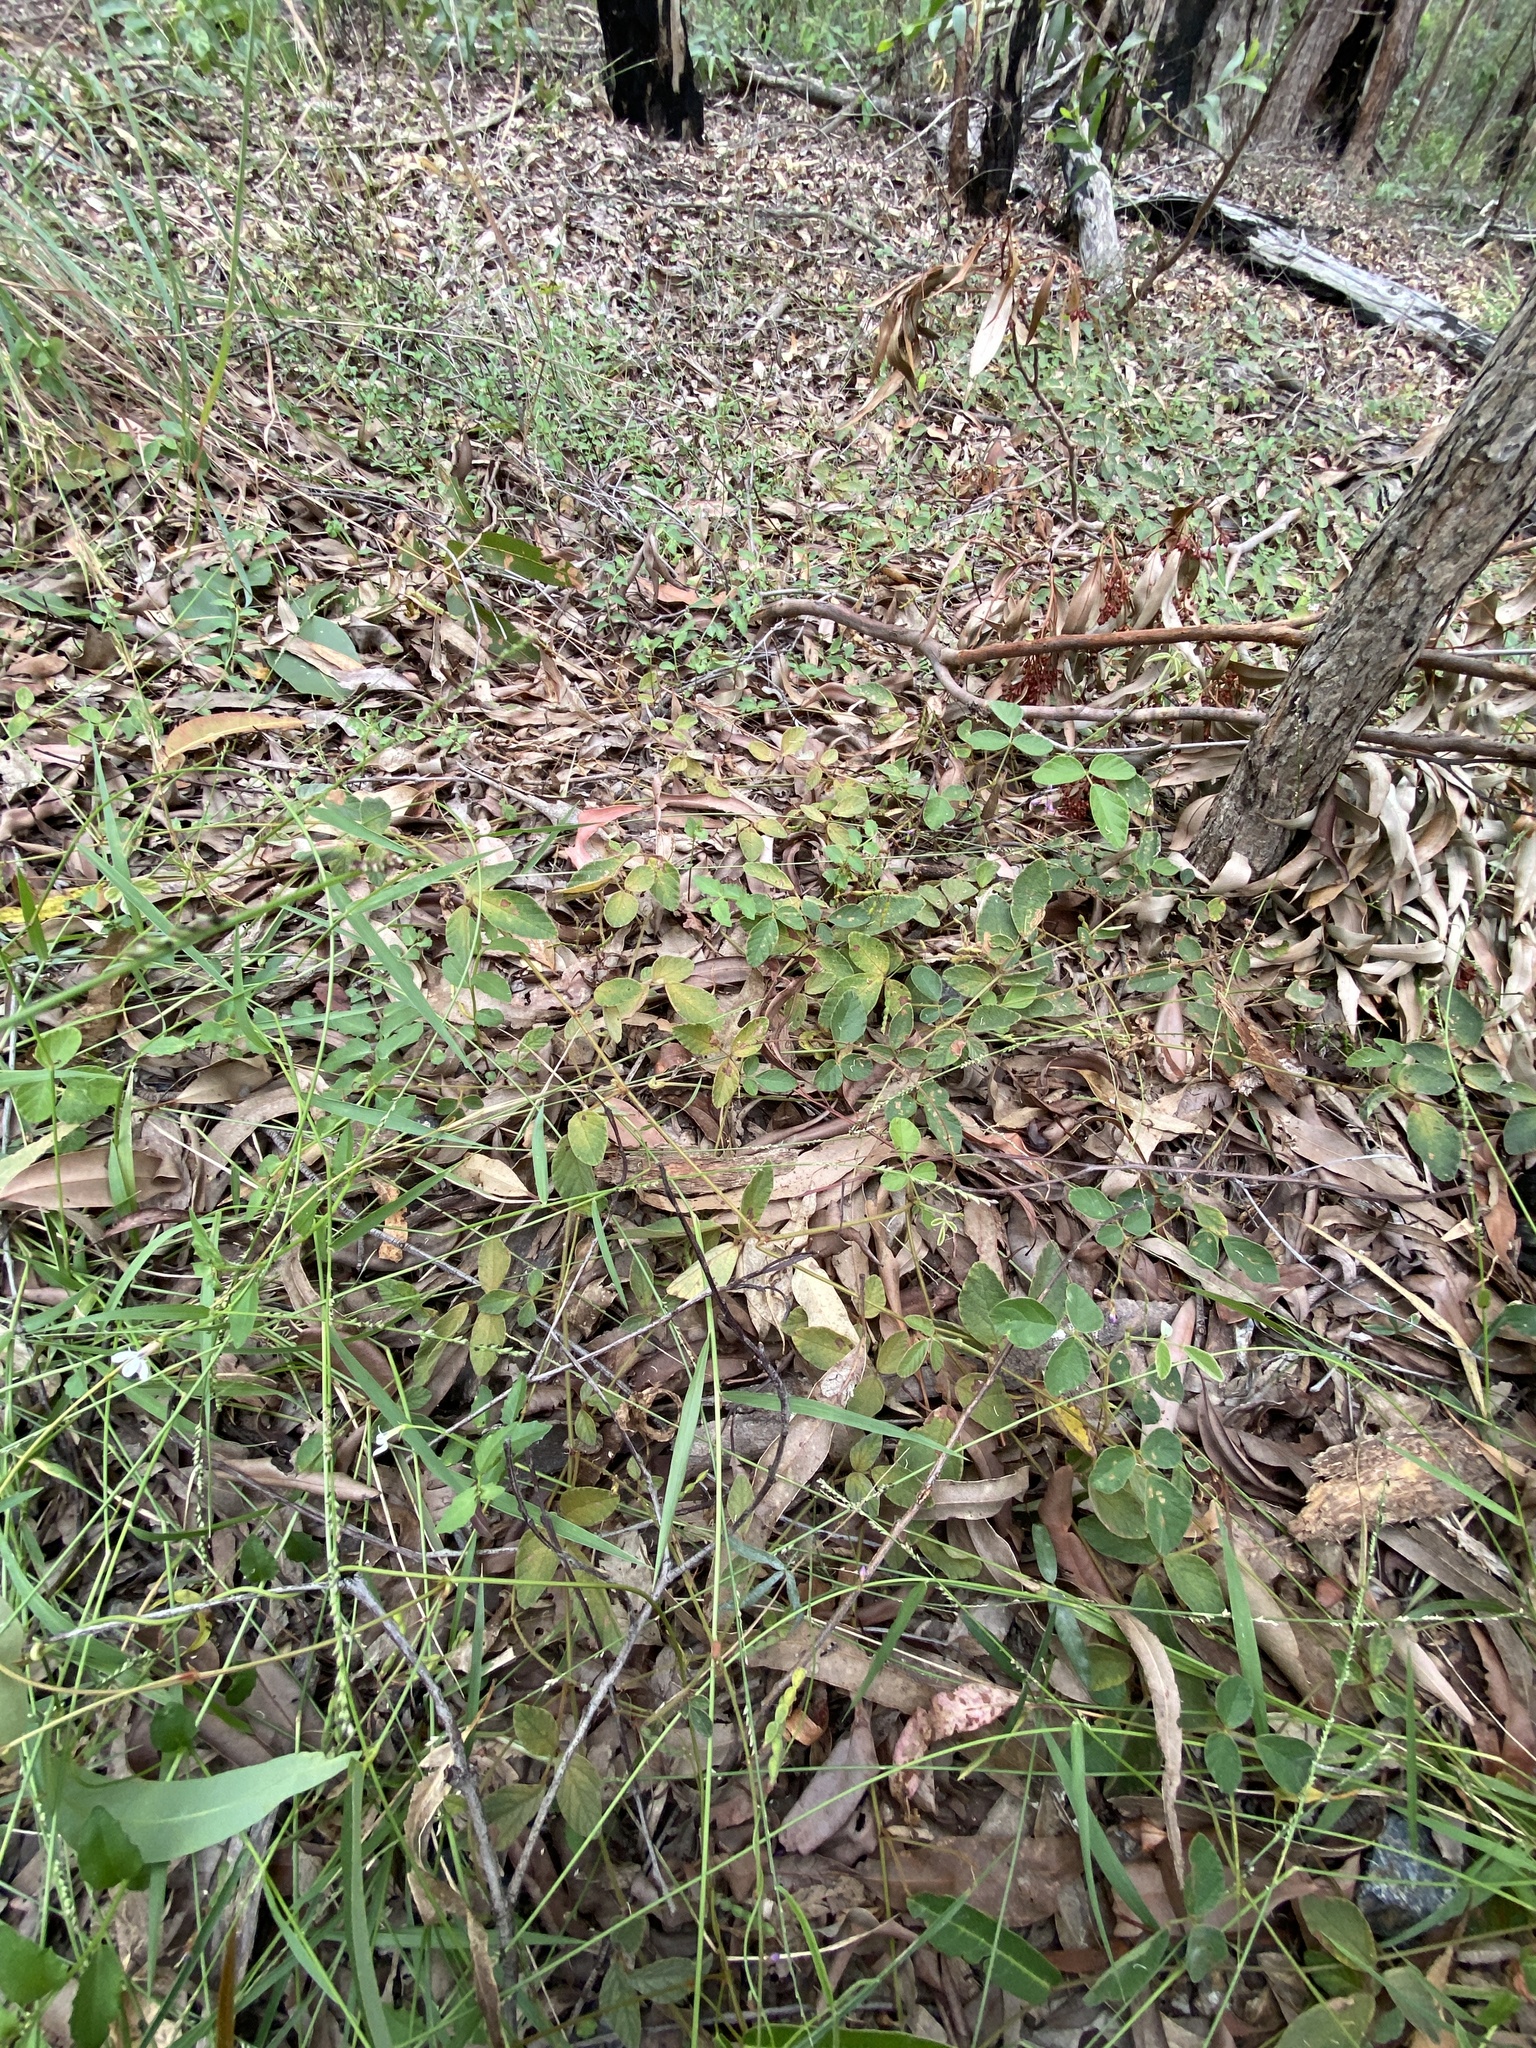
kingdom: Plantae
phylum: Tracheophyta
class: Magnoliopsida
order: Fabales
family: Fabaceae
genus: Maekawaea
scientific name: Maekawaea rhytidophylla
